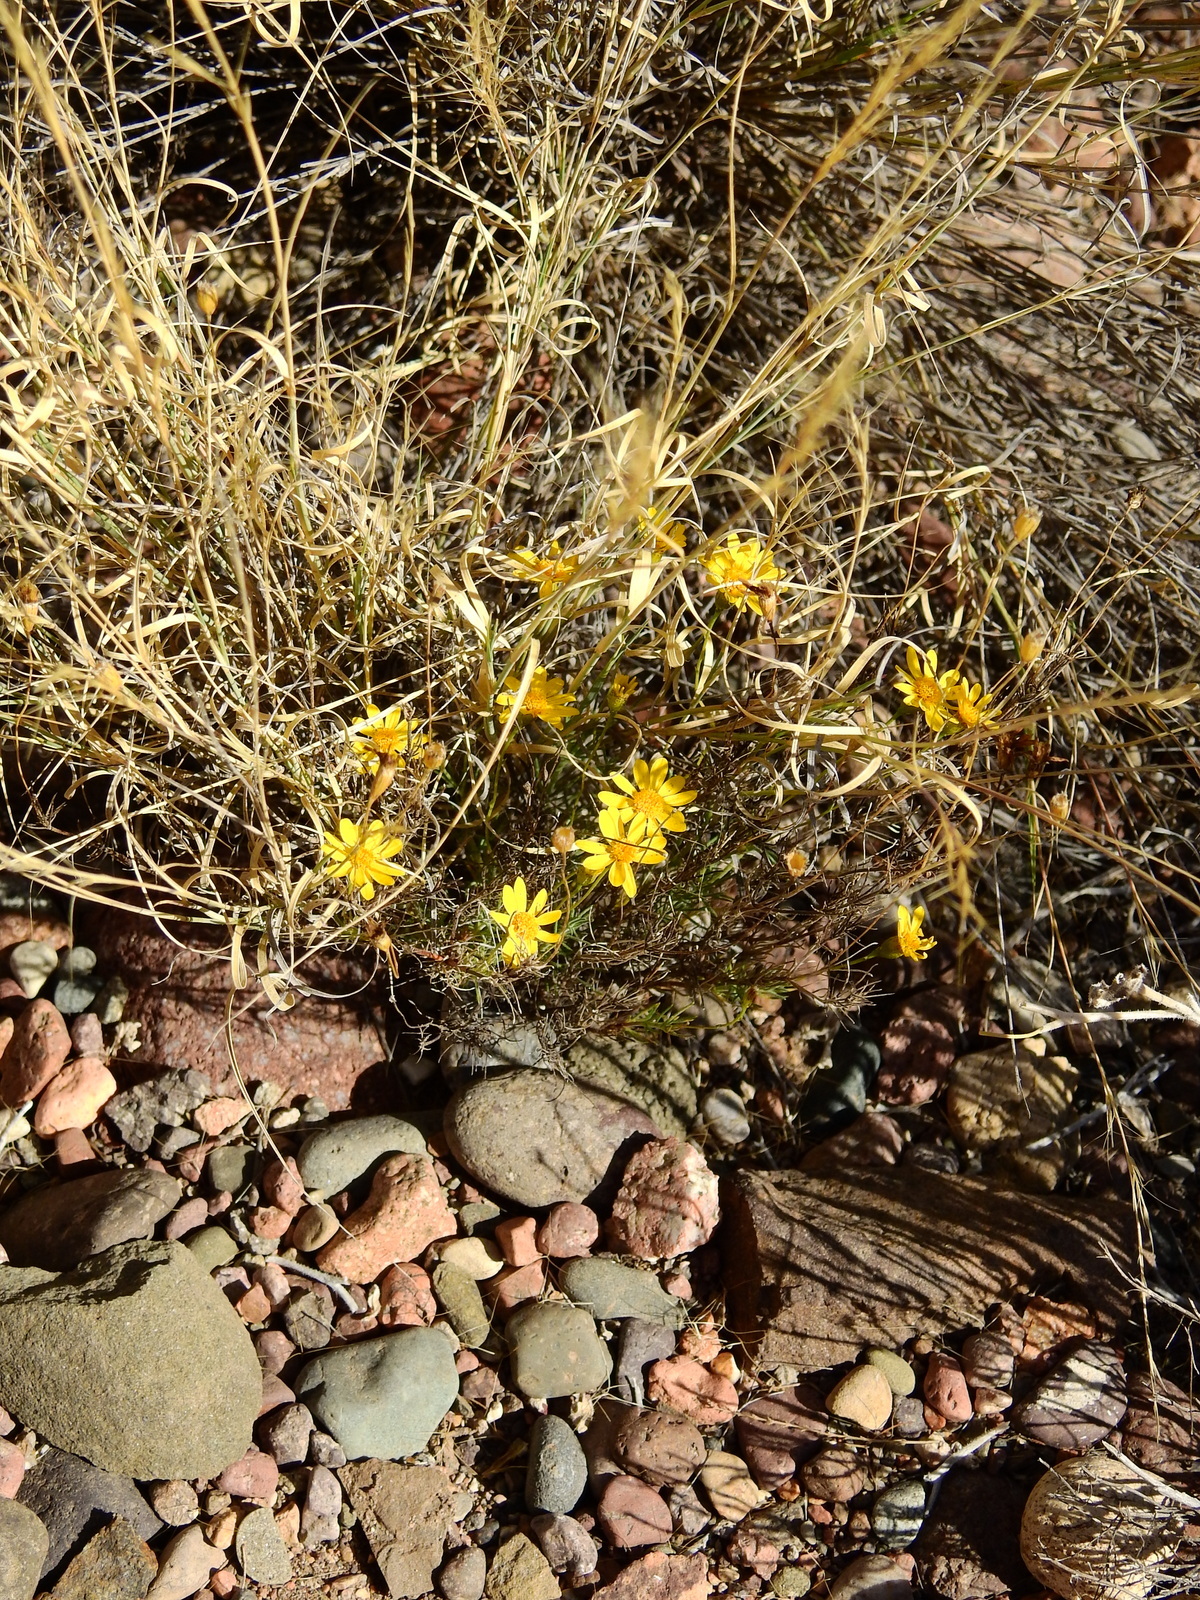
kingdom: Plantae
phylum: Tracheophyta
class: Magnoliopsida
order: Asterales
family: Asteraceae
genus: Thymophylla
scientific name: Thymophylla pentachaeta
